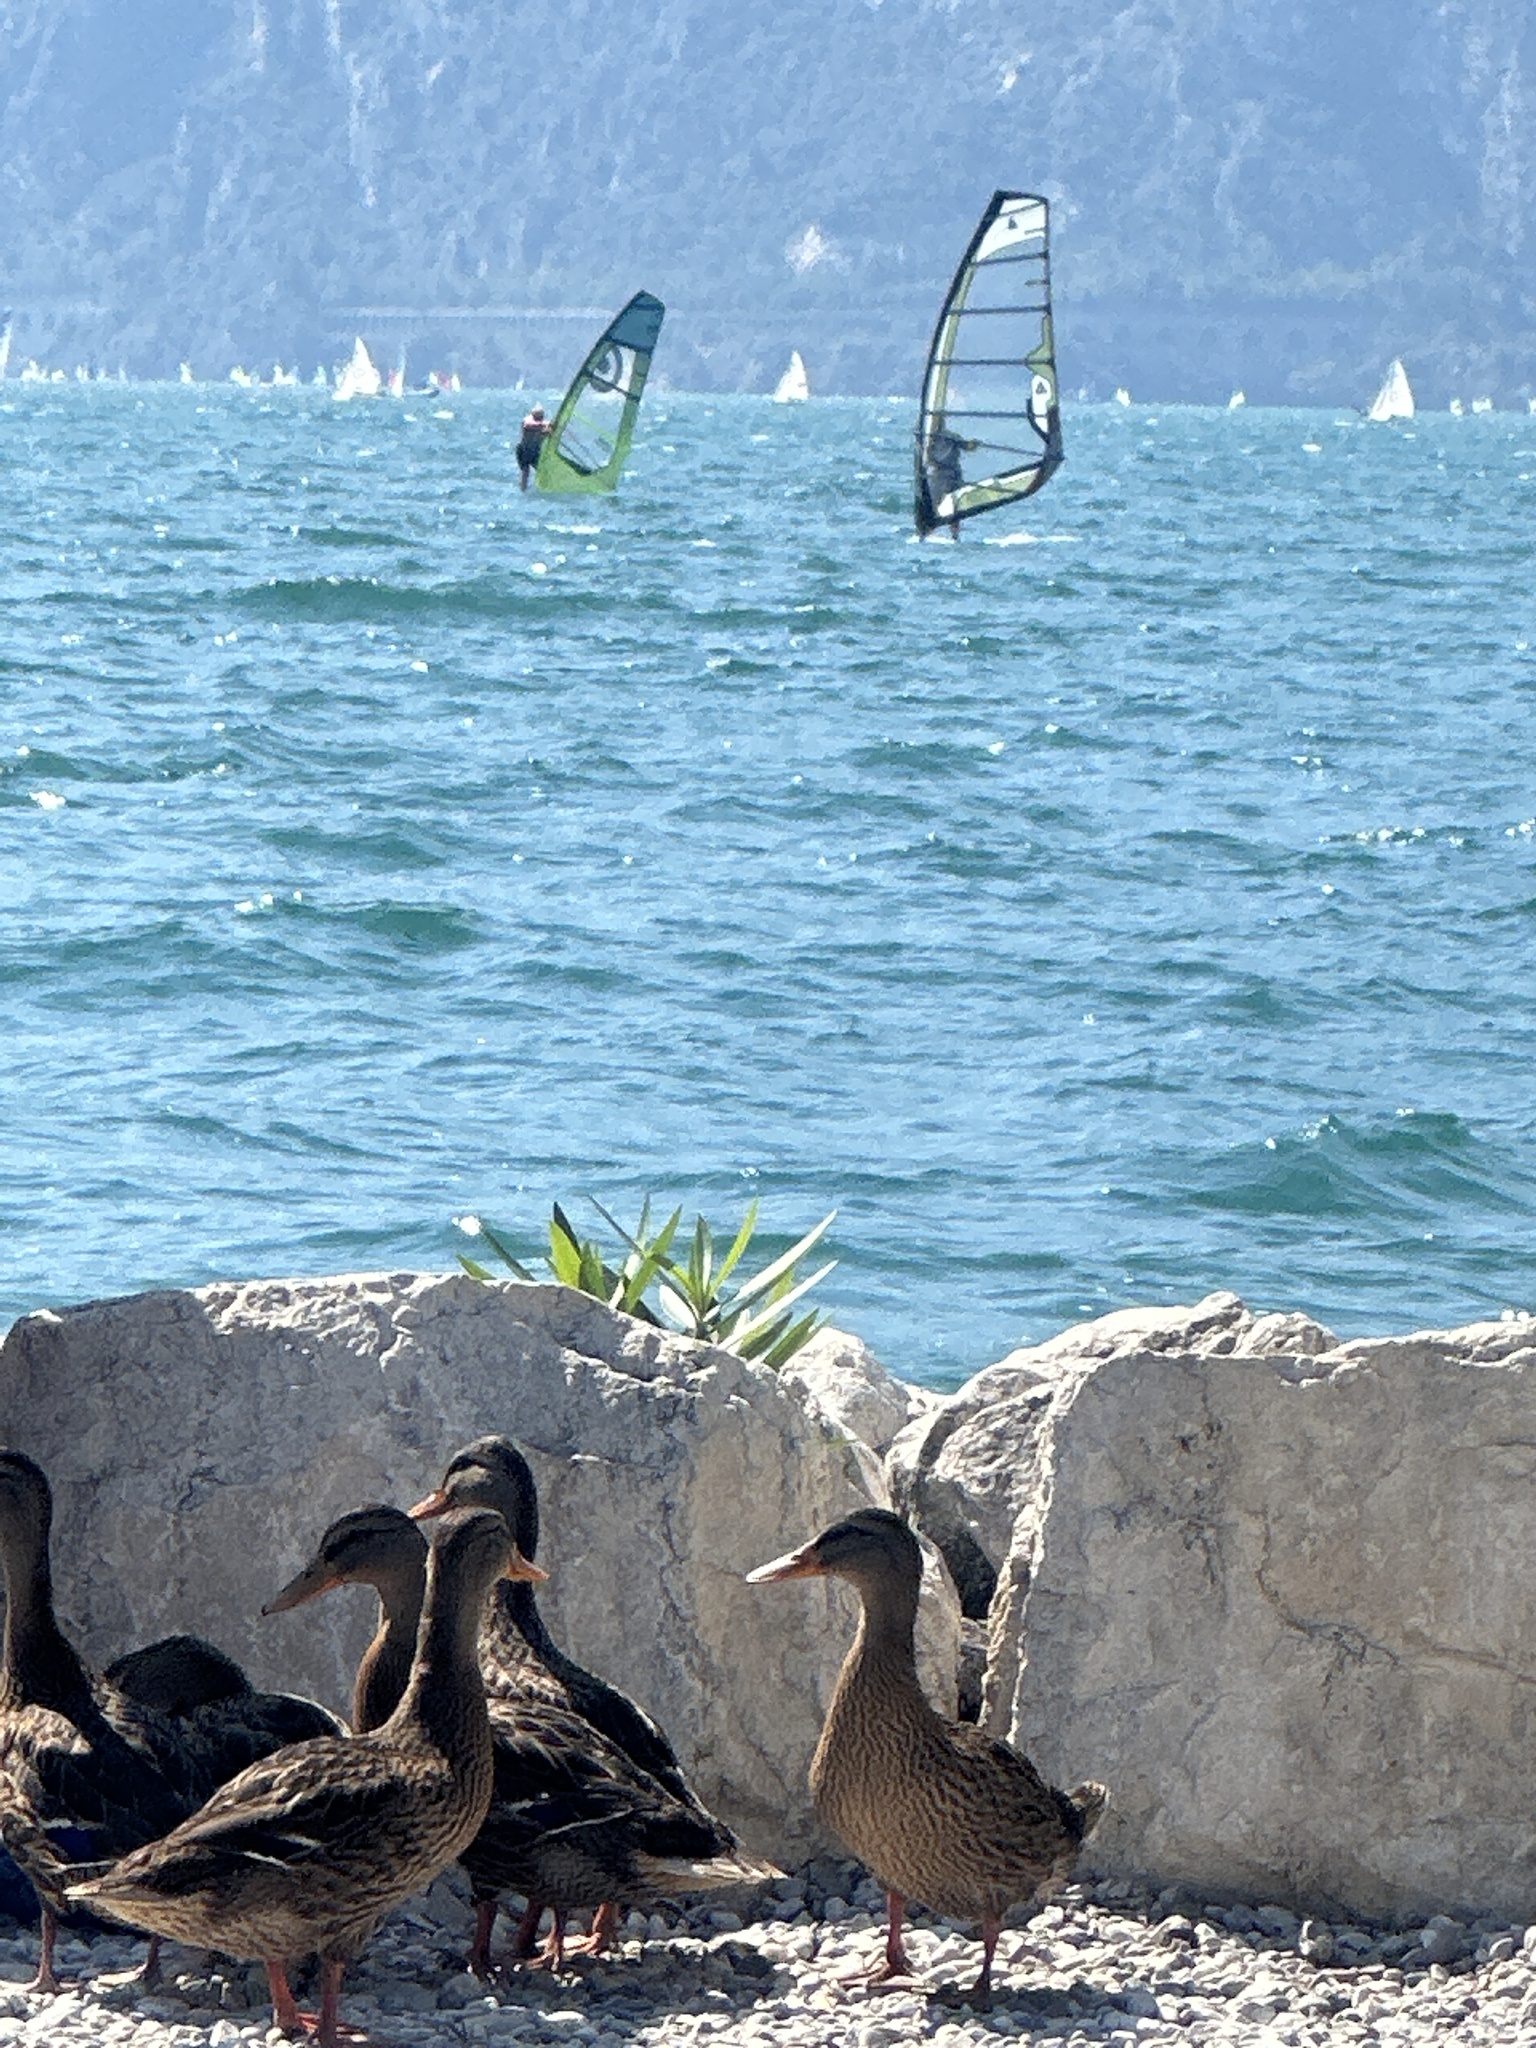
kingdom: Animalia
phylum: Chordata
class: Aves
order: Anseriformes
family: Anatidae
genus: Anas
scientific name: Anas platyrhynchos
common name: Mallard
